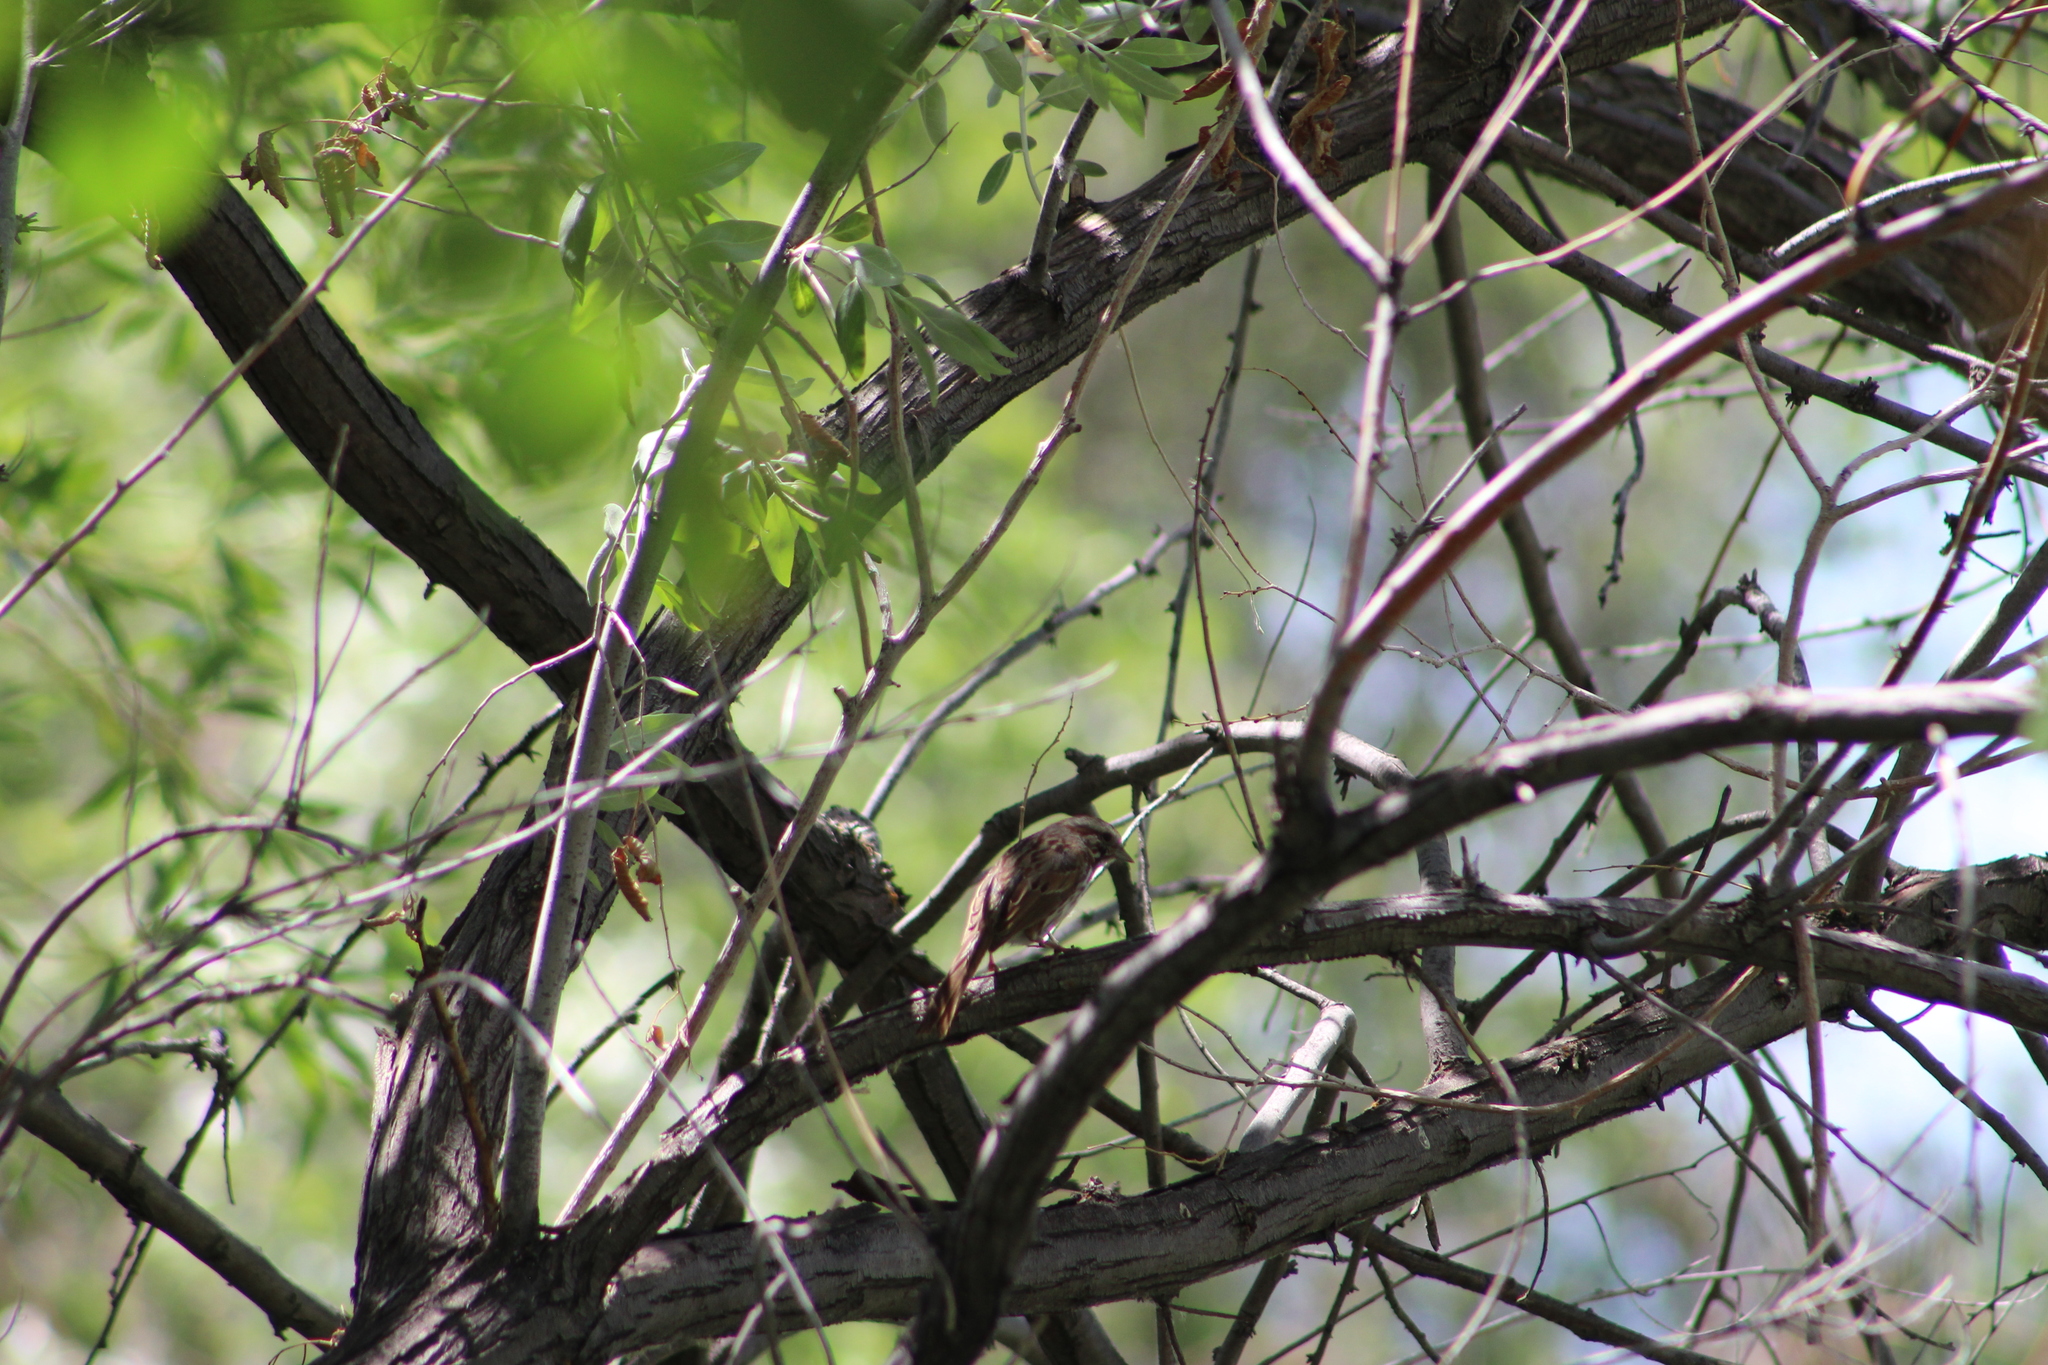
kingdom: Animalia
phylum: Chordata
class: Aves
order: Passeriformes
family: Passerellidae
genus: Melospiza
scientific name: Melospiza melodia
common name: Song sparrow
